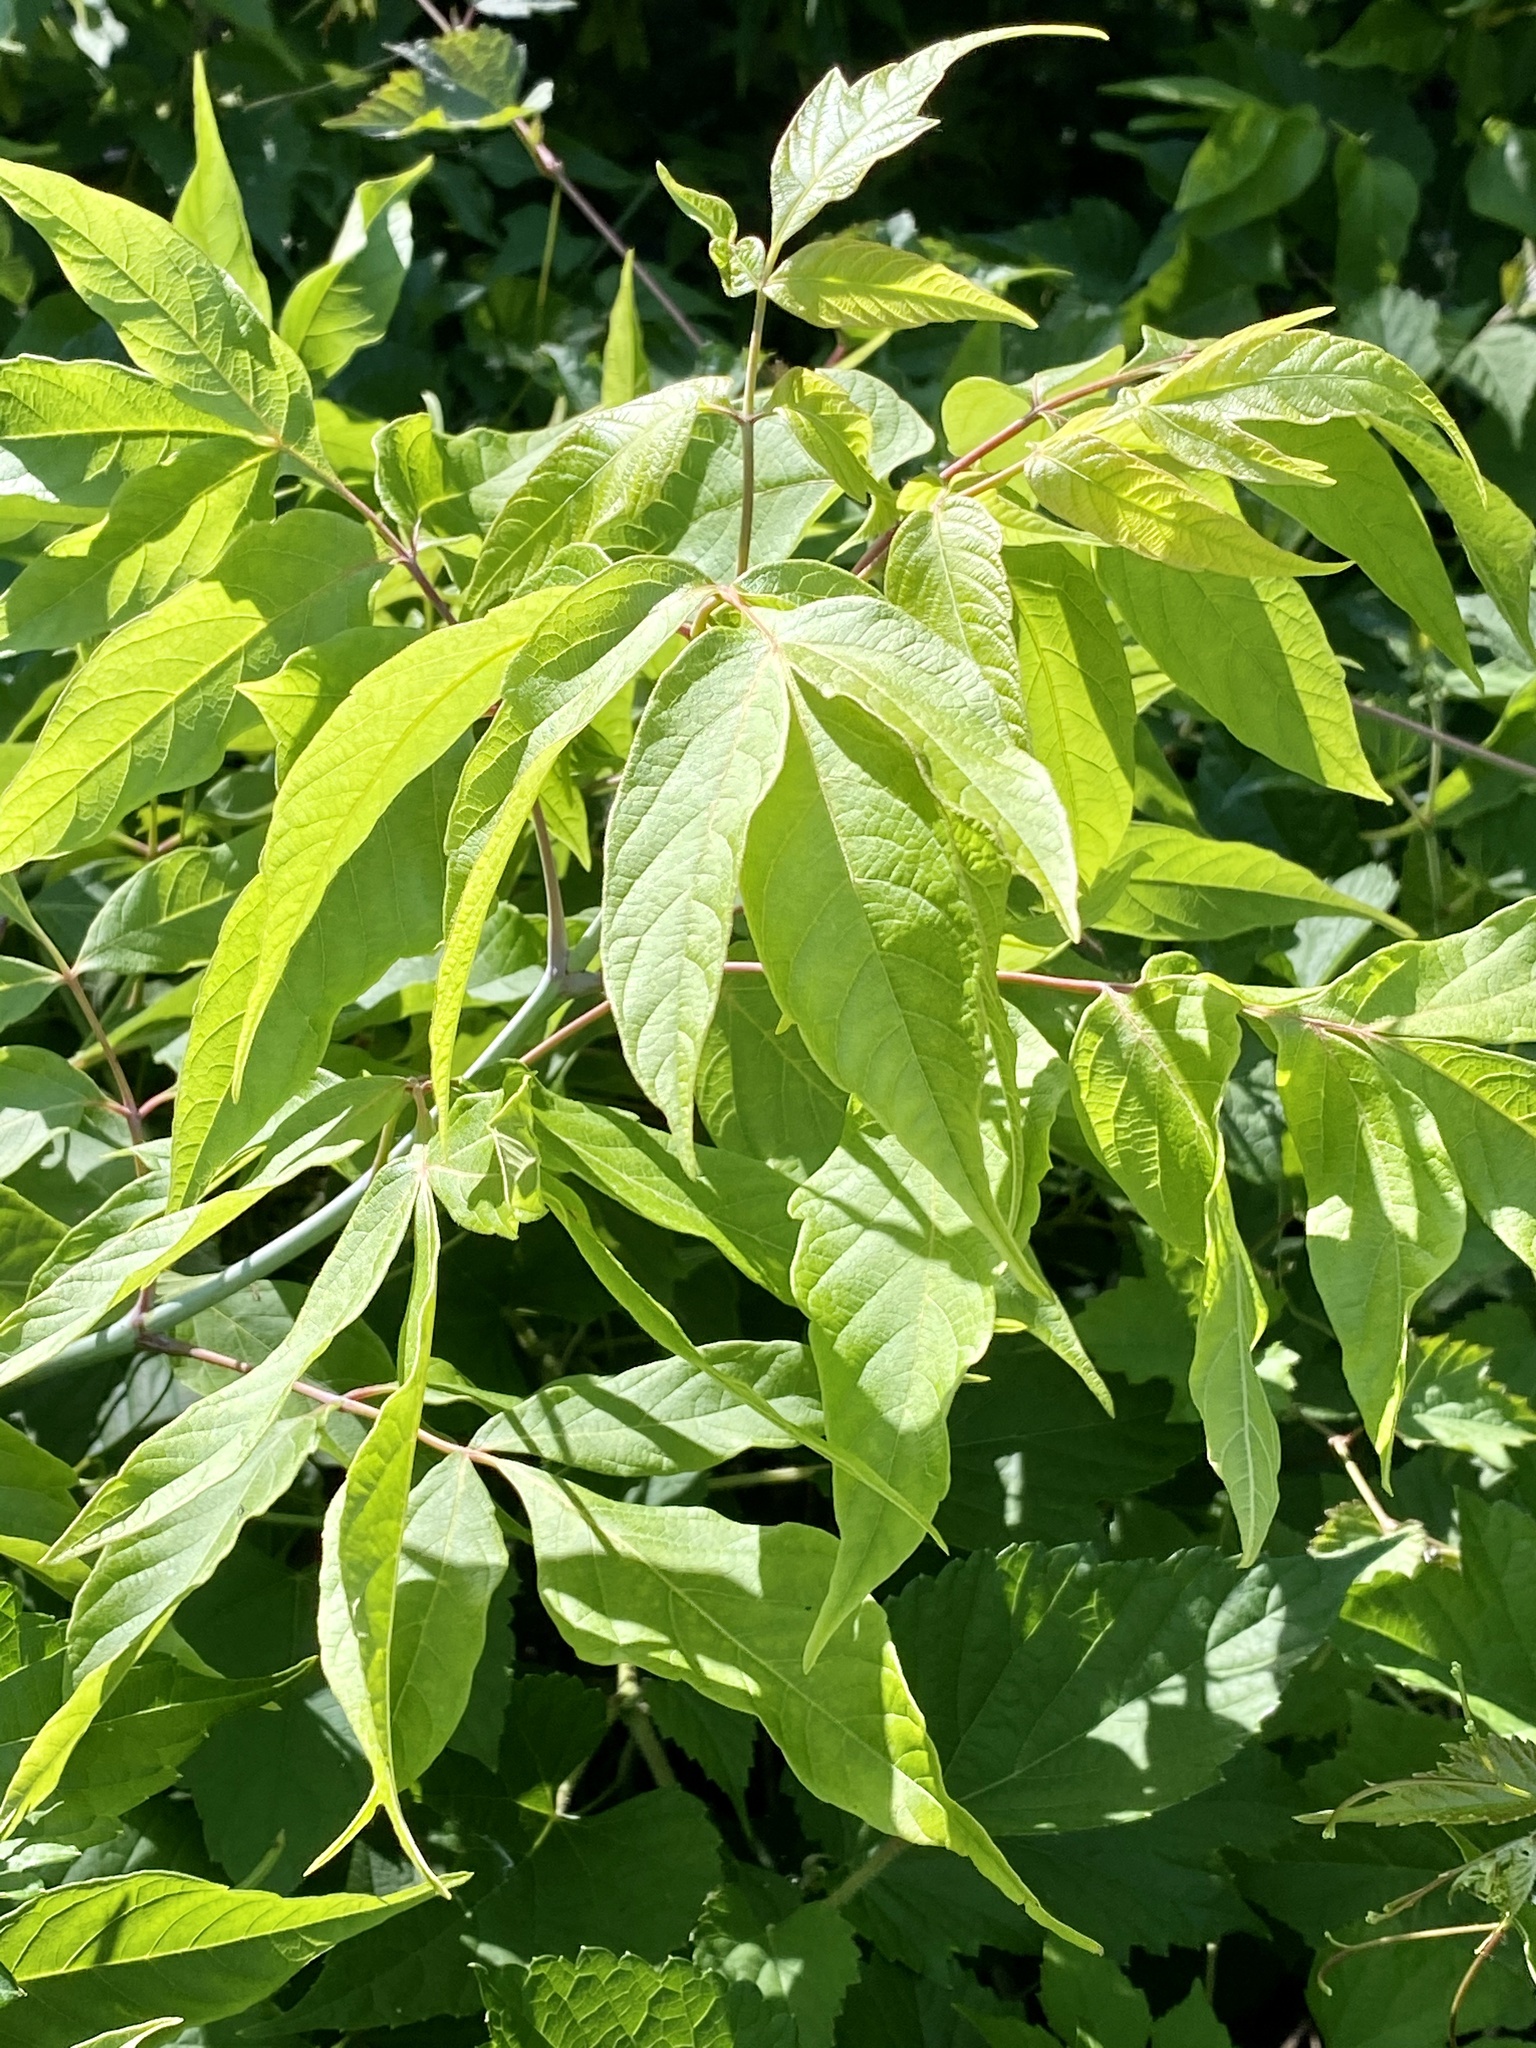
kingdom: Plantae
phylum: Tracheophyta
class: Magnoliopsida
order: Sapindales
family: Sapindaceae
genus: Acer
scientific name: Acer negundo
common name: Ashleaf maple
